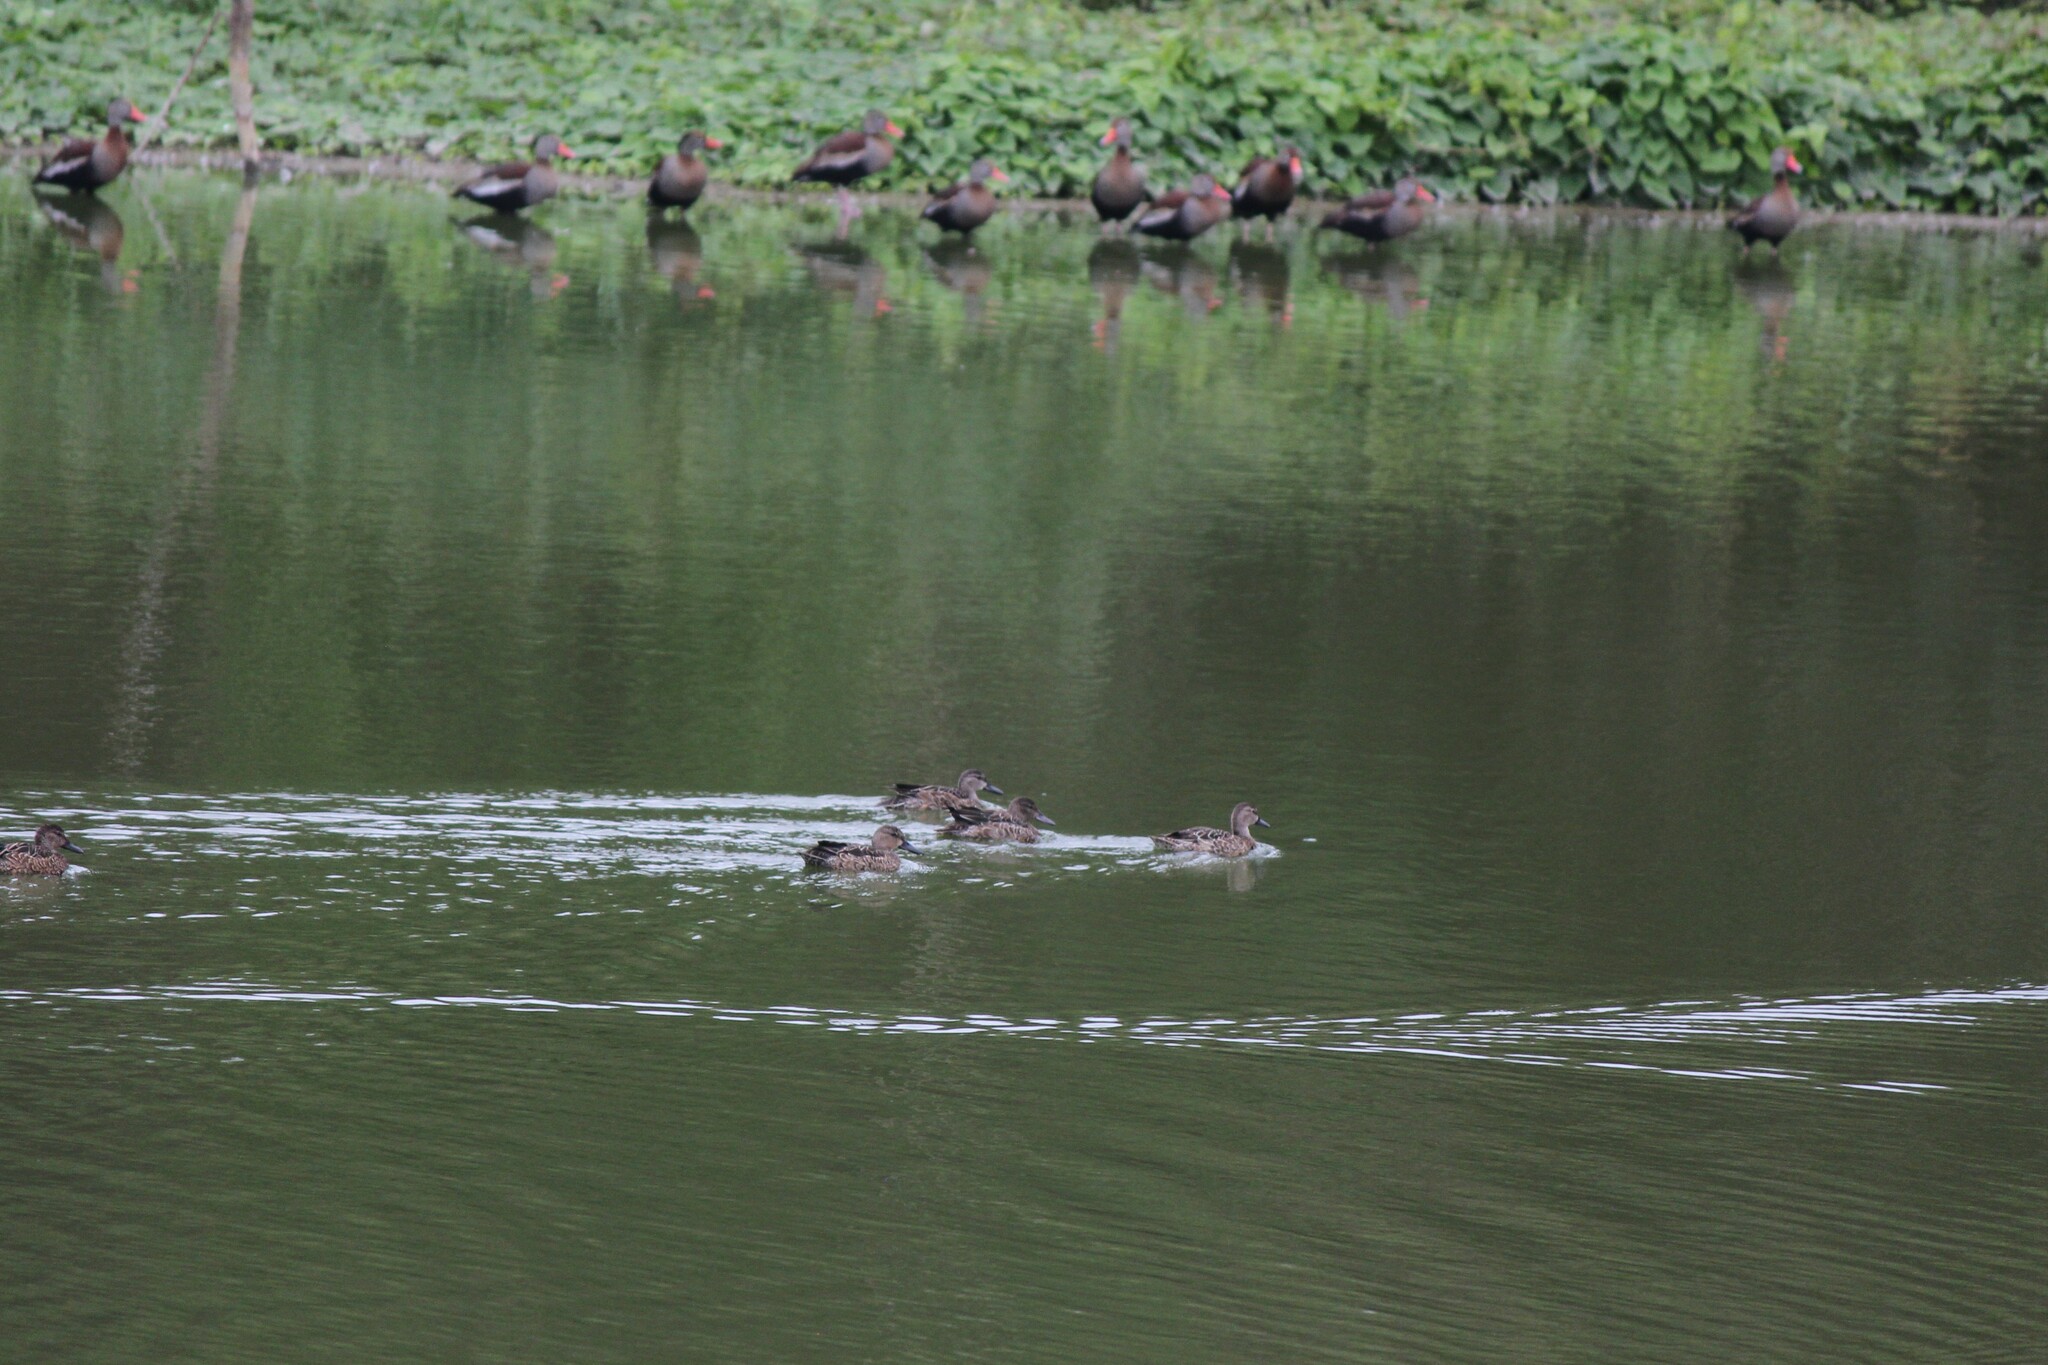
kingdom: Animalia
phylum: Chordata
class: Aves
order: Anseriformes
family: Anatidae
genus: Spatula
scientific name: Spatula discors
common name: Blue-winged teal
